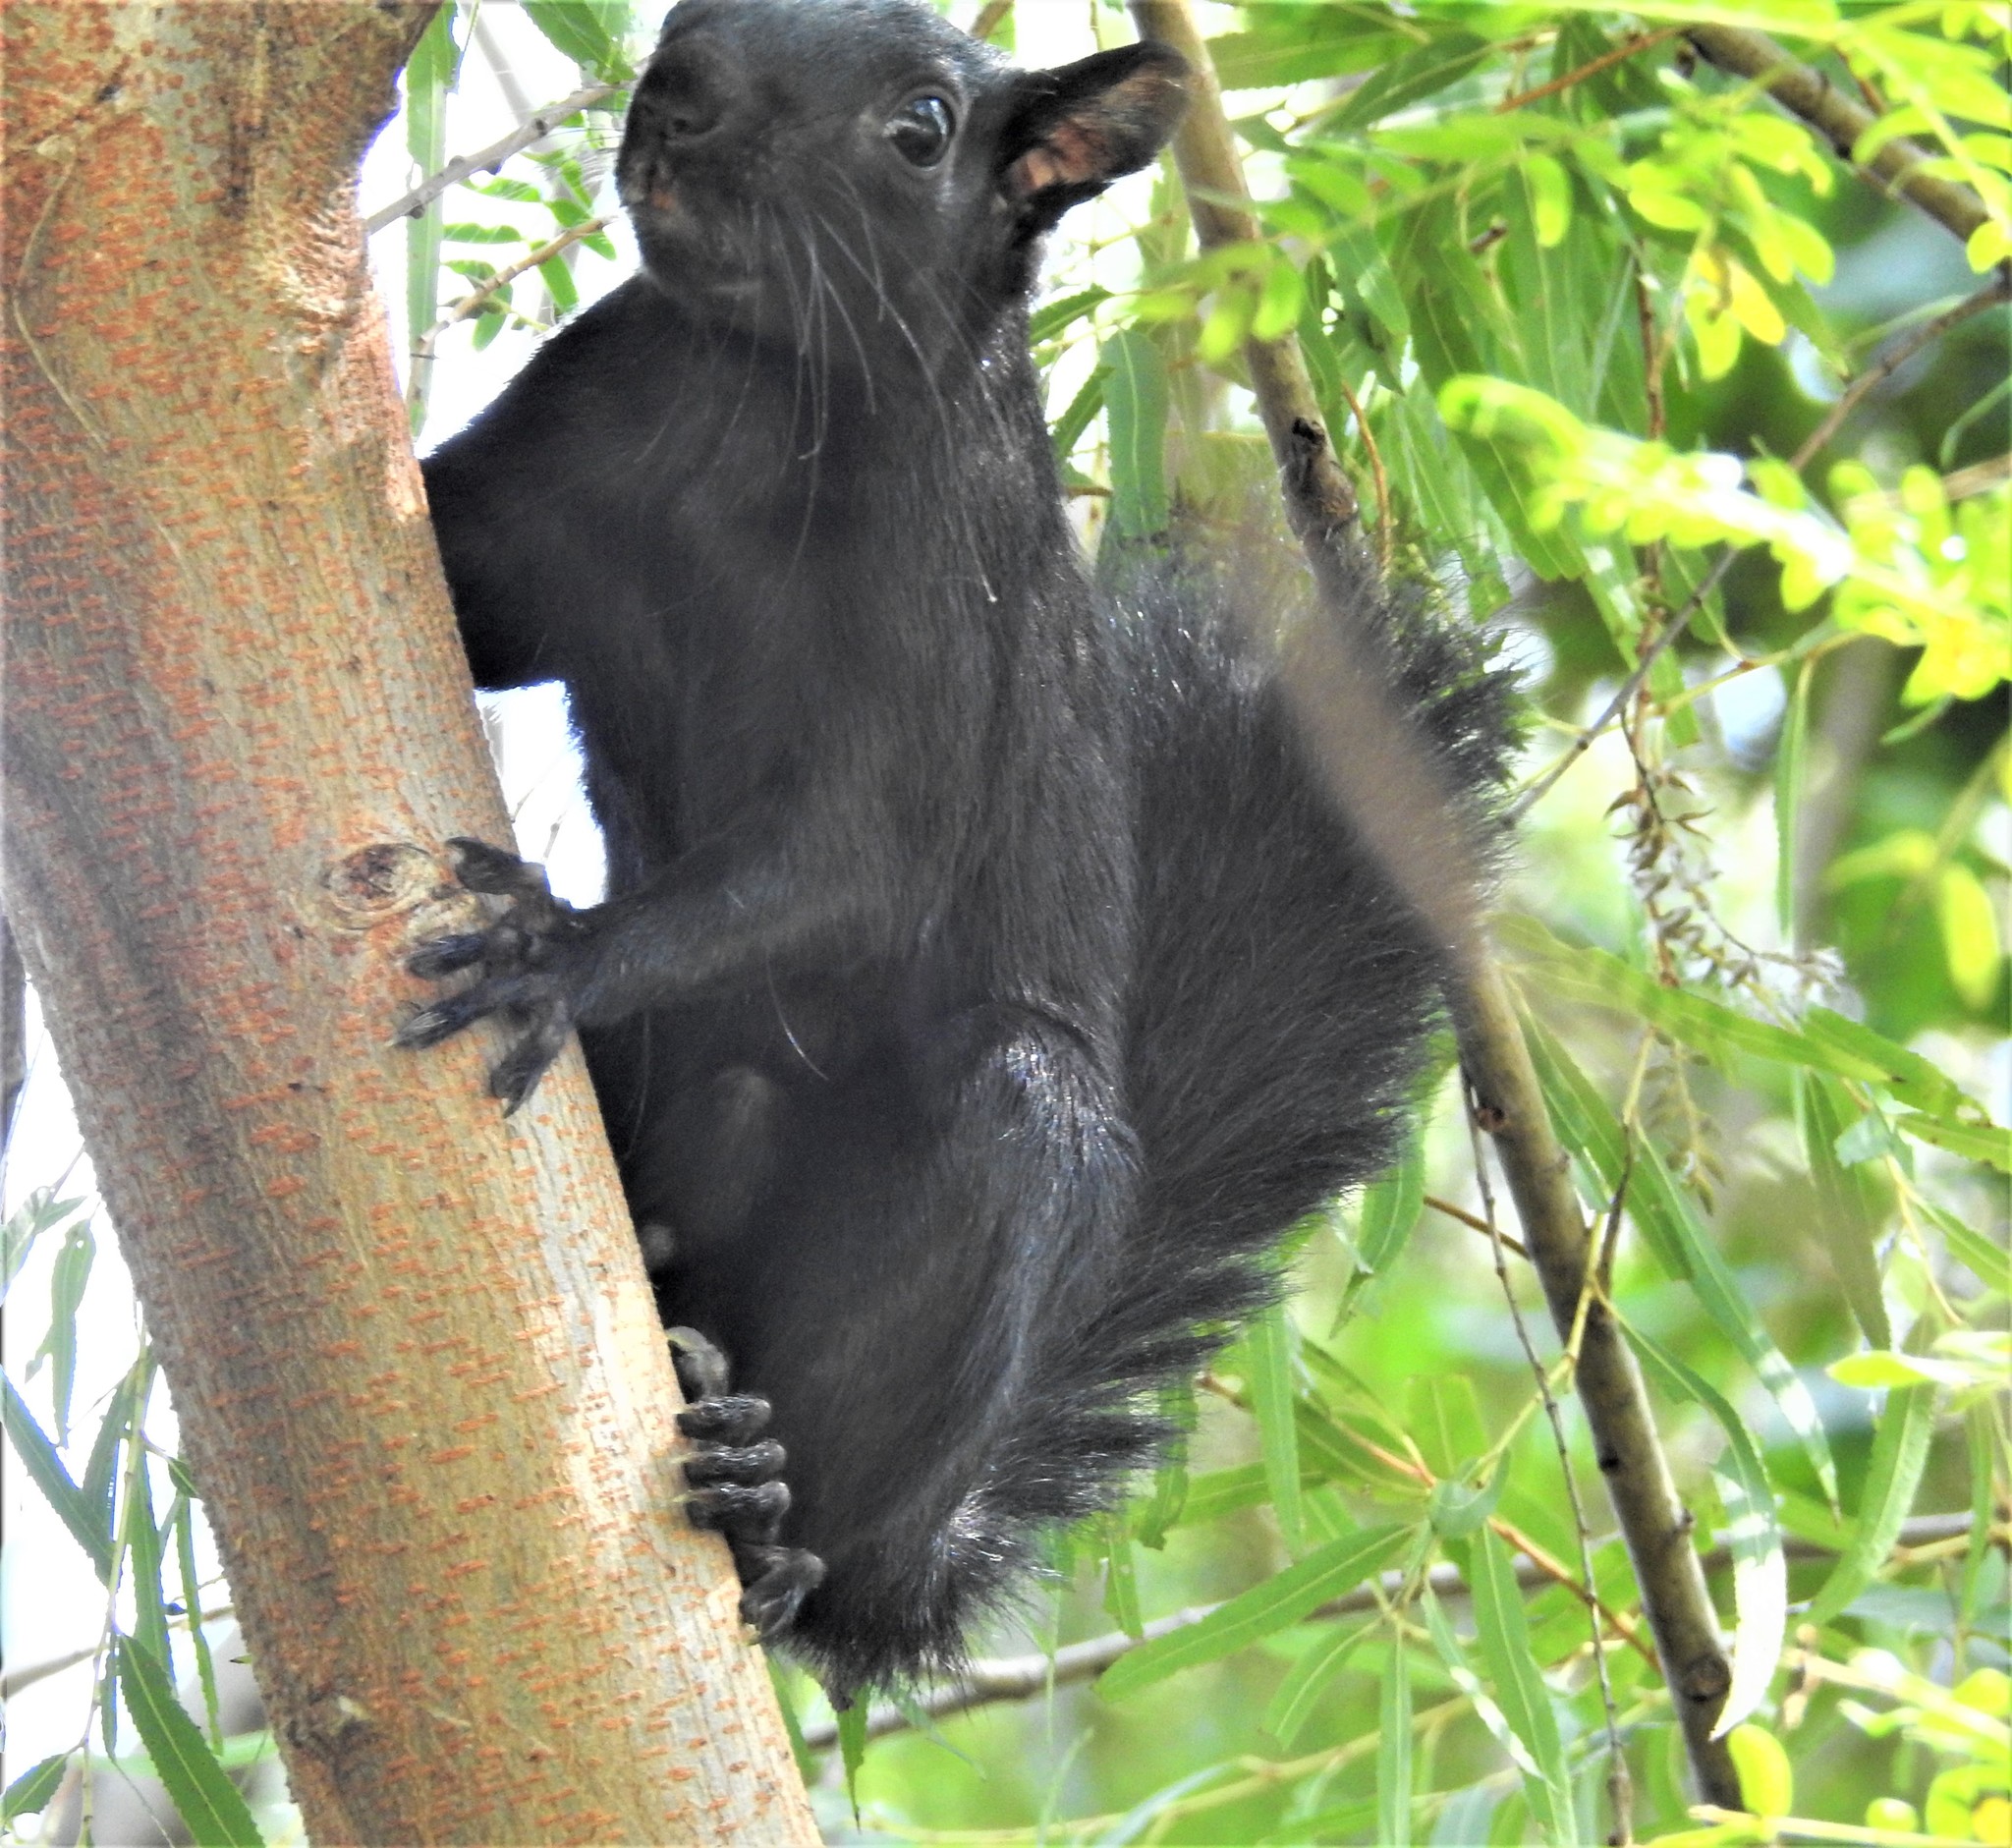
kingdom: Animalia
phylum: Chordata
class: Mammalia
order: Rodentia
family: Sciuridae
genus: Sciurus
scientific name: Sciurus aureogaster
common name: Red-bellied squirrel
